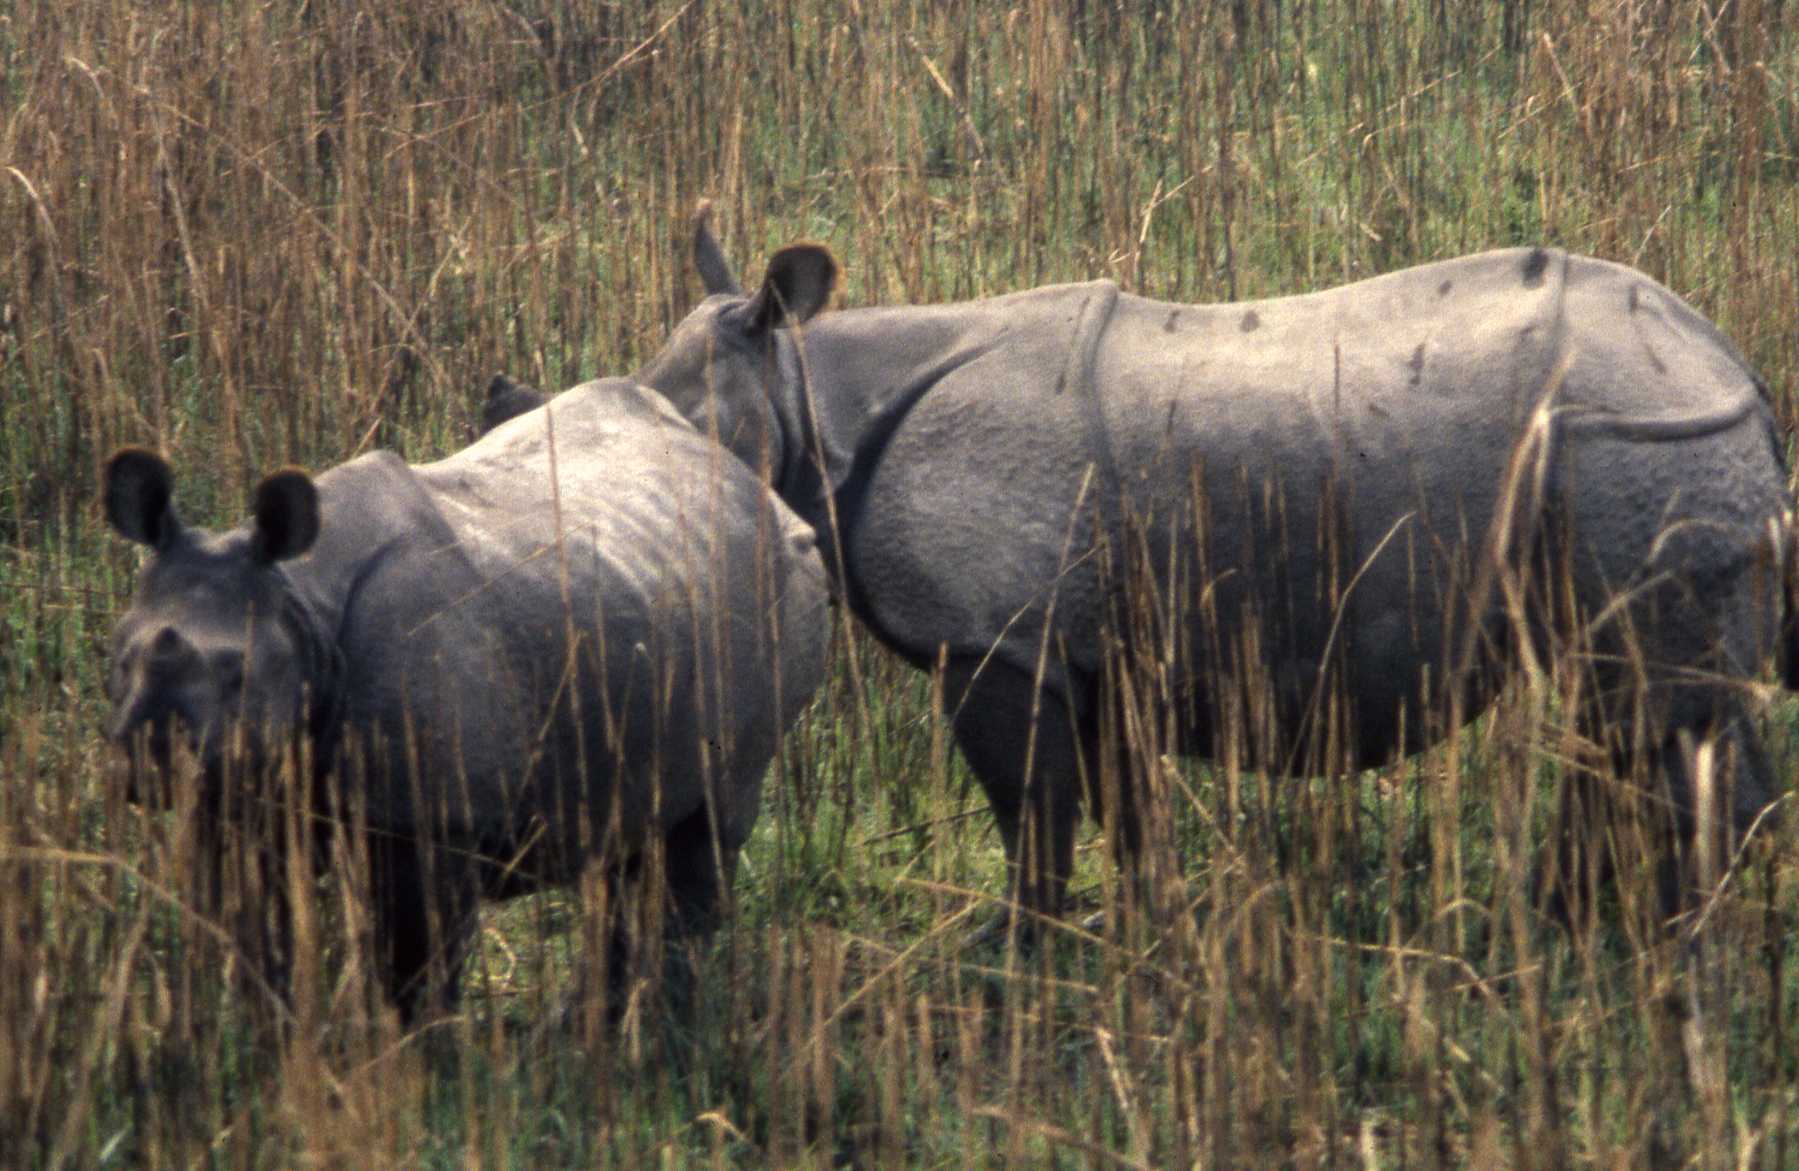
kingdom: Animalia
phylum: Chordata
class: Mammalia
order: Perissodactyla
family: Rhinocerotidae
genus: Rhinoceros
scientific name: Rhinoceros unicornis
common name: Indian rhinoceros
